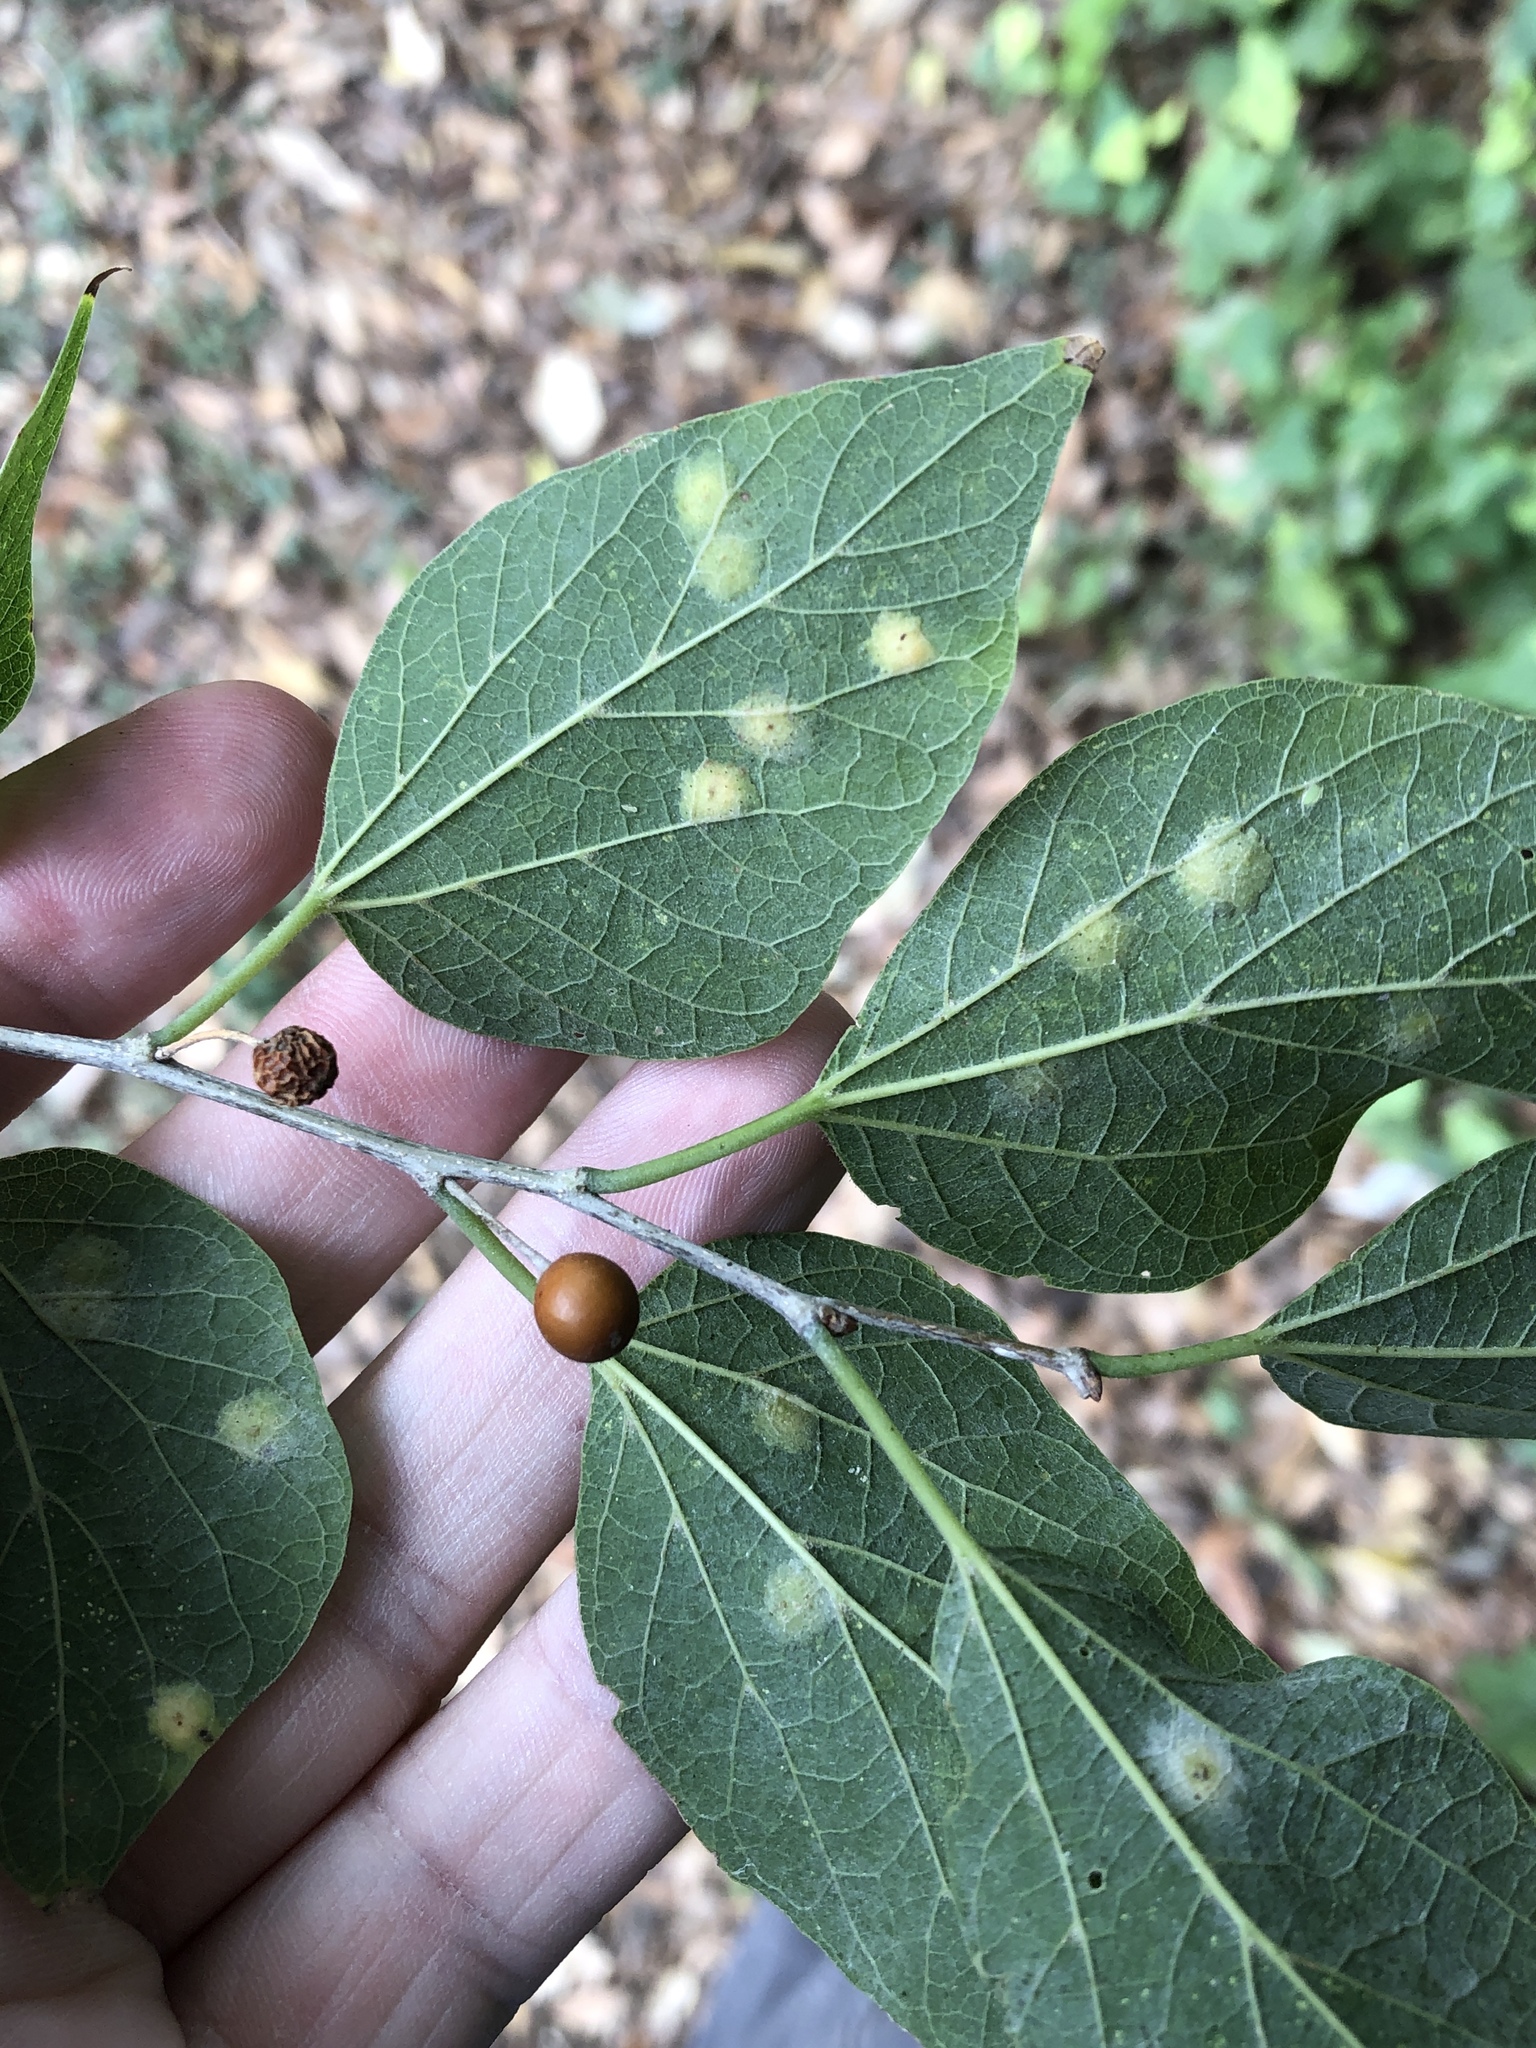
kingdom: Plantae
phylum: Tracheophyta
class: Magnoliopsida
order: Rosales
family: Cannabaceae
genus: Celtis
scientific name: Celtis laevigata
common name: Sugarberry
